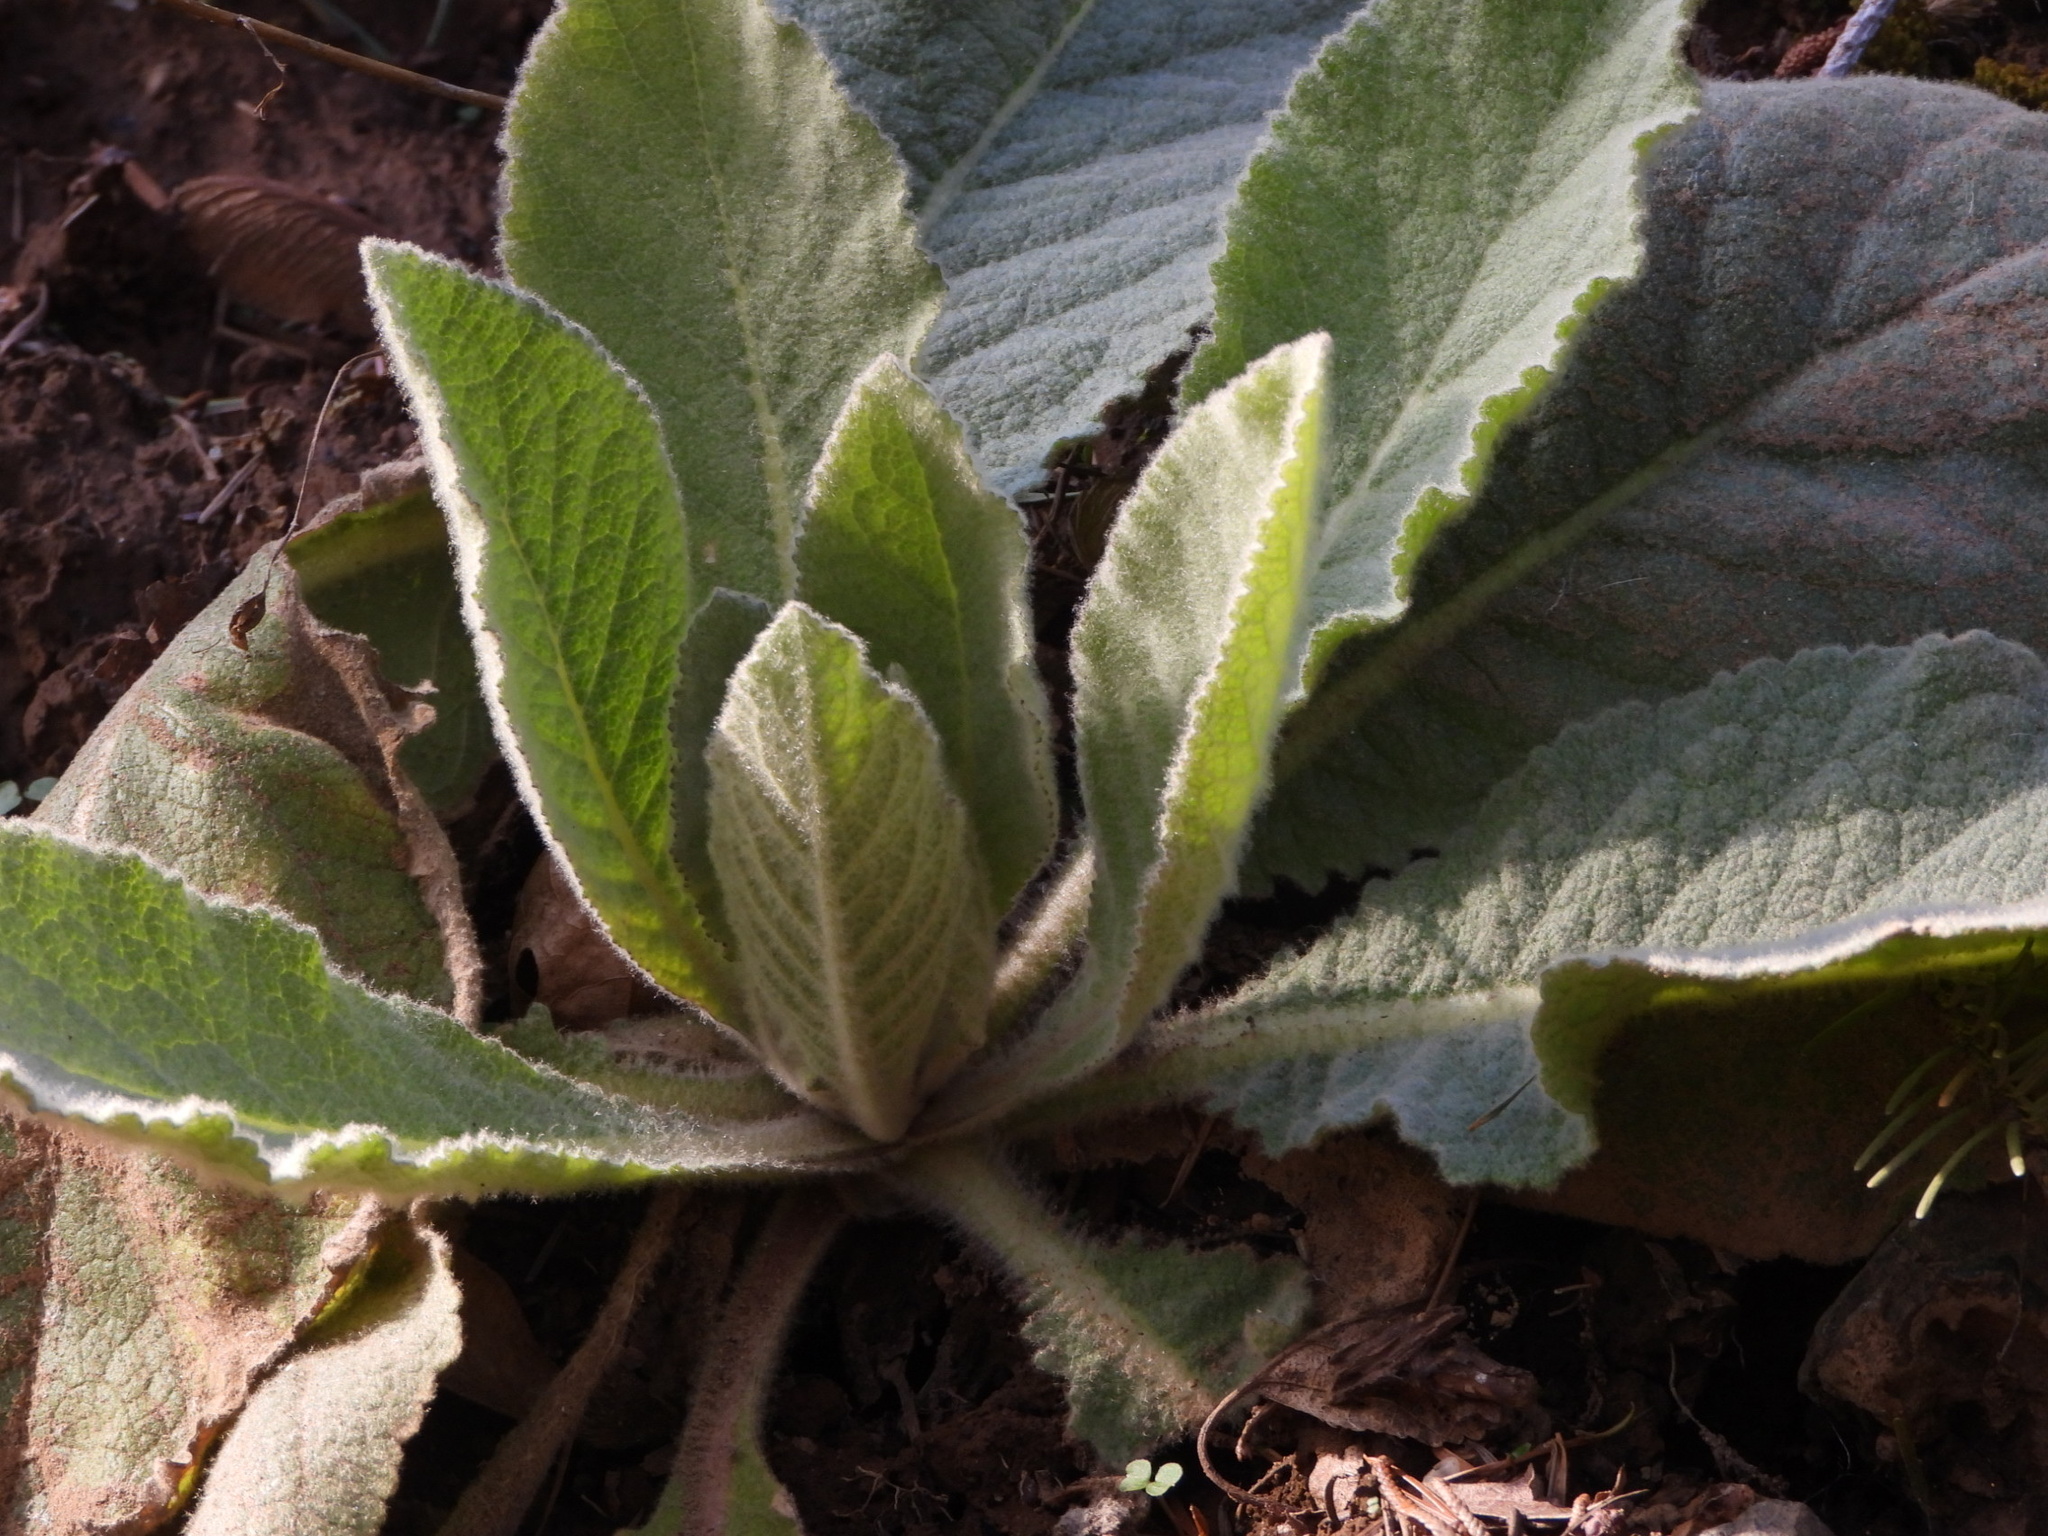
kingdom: Plantae
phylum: Tracheophyta
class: Magnoliopsida
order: Lamiales
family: Scrophulariaceae
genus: Verbascum
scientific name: Verbascum thapsus
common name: Common mullein
